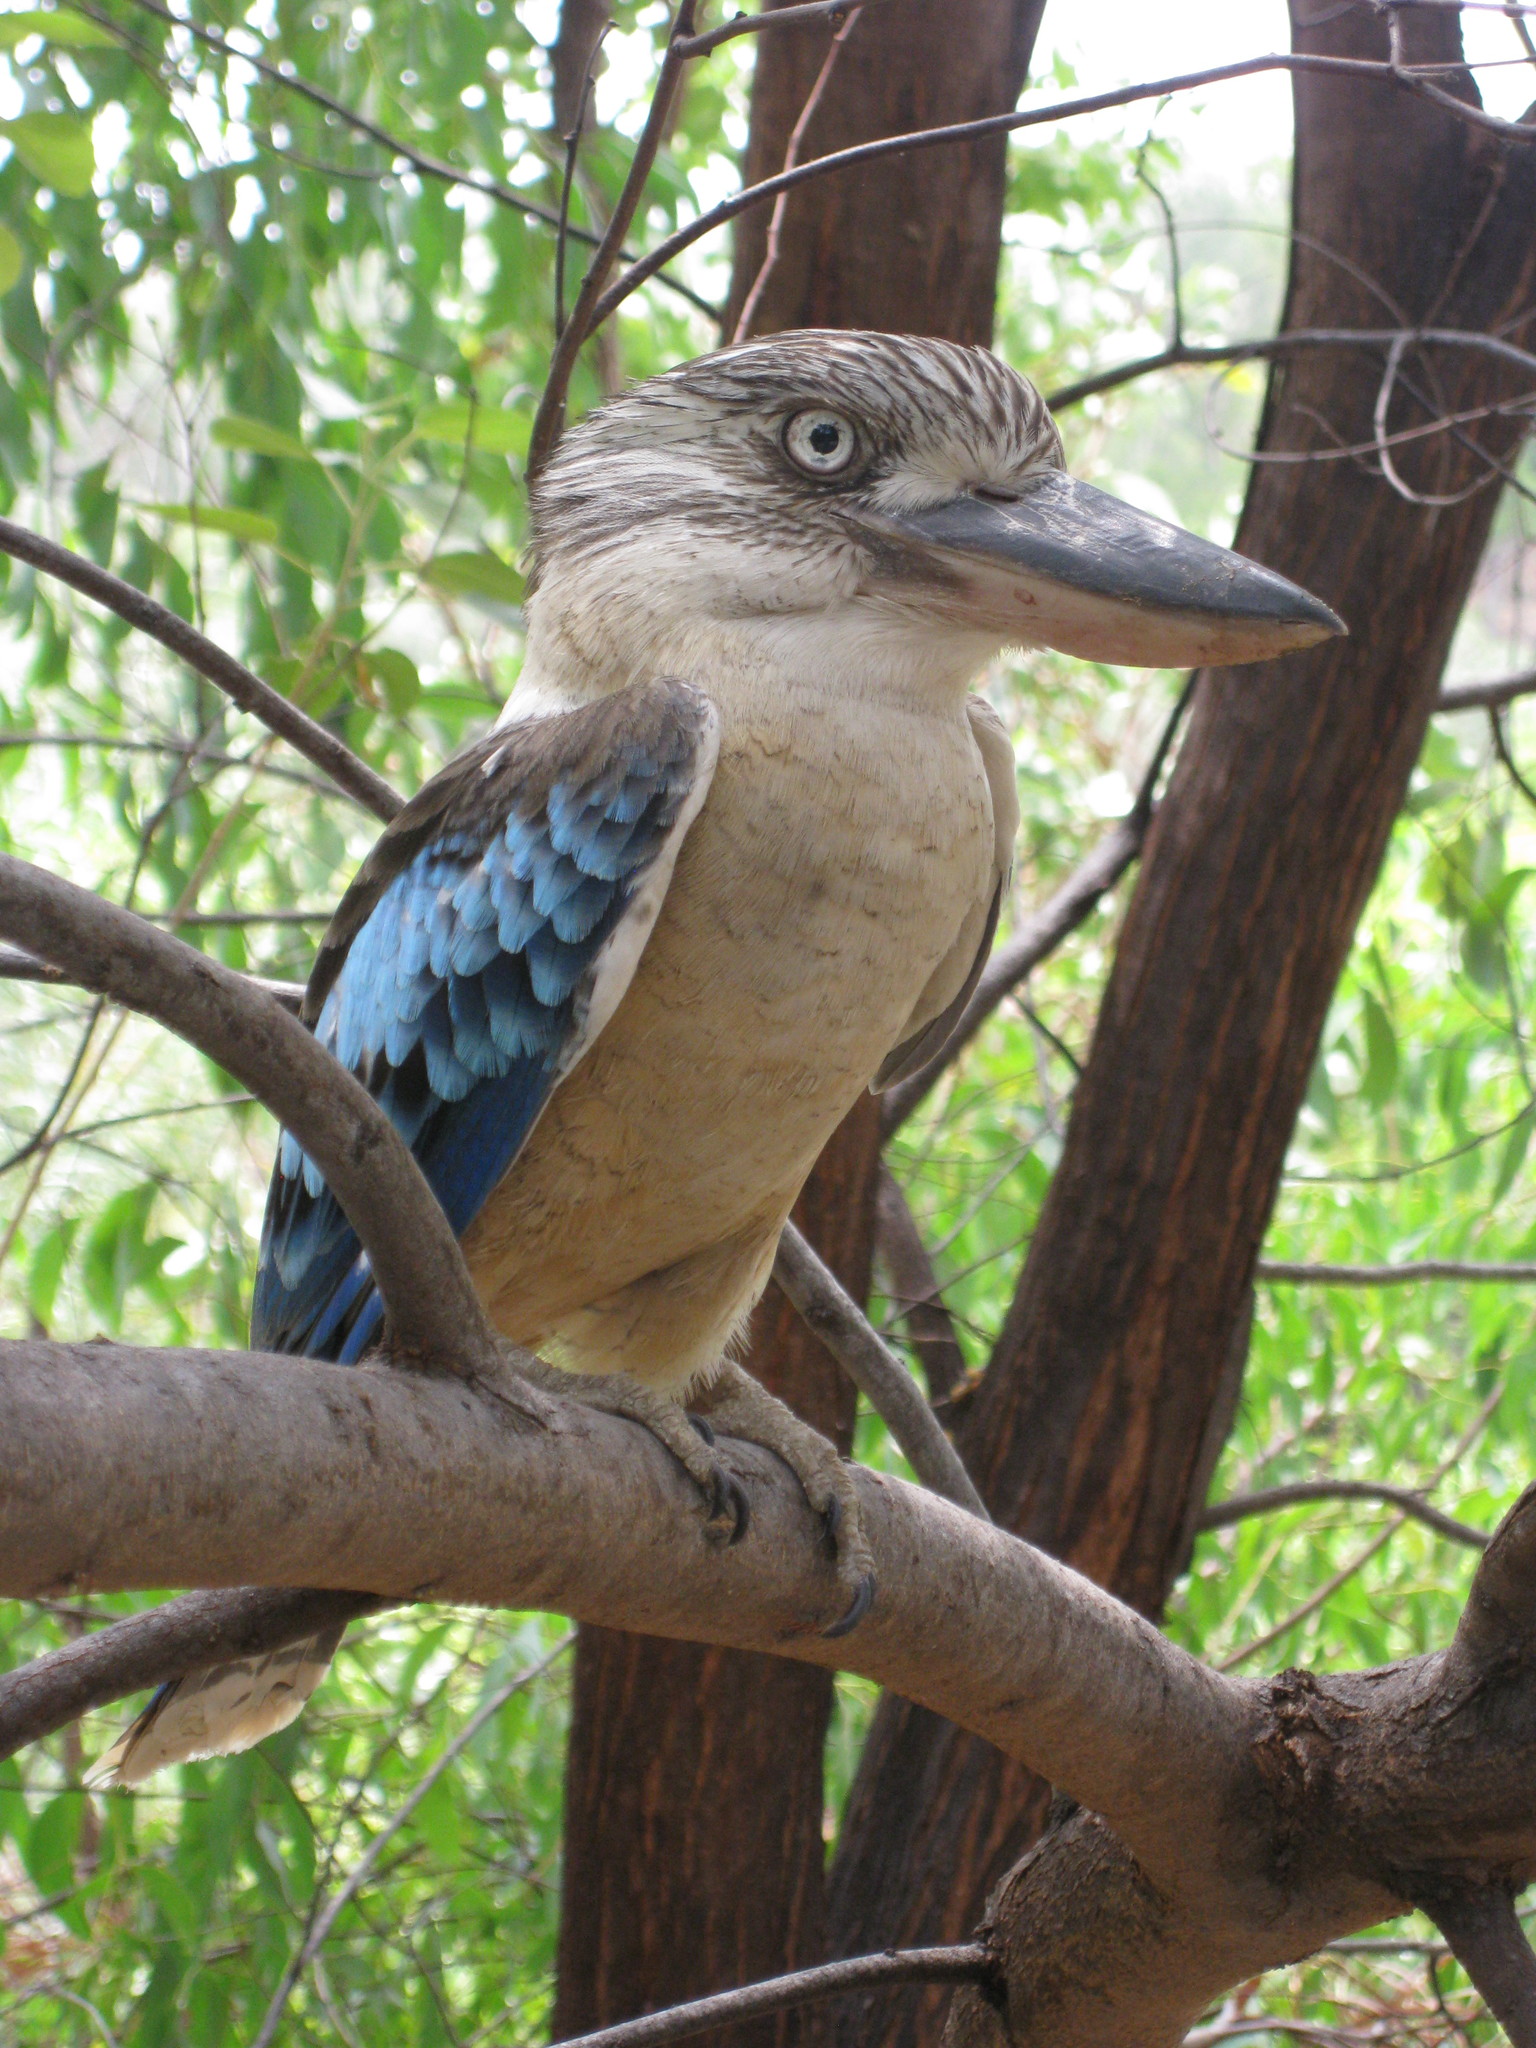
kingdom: Animalia
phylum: Chordata
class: Aves
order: Coraciiformes
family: Alcedinidae
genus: Dacelo
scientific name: Dacelo leachii
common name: Blue-winged kookaburra
